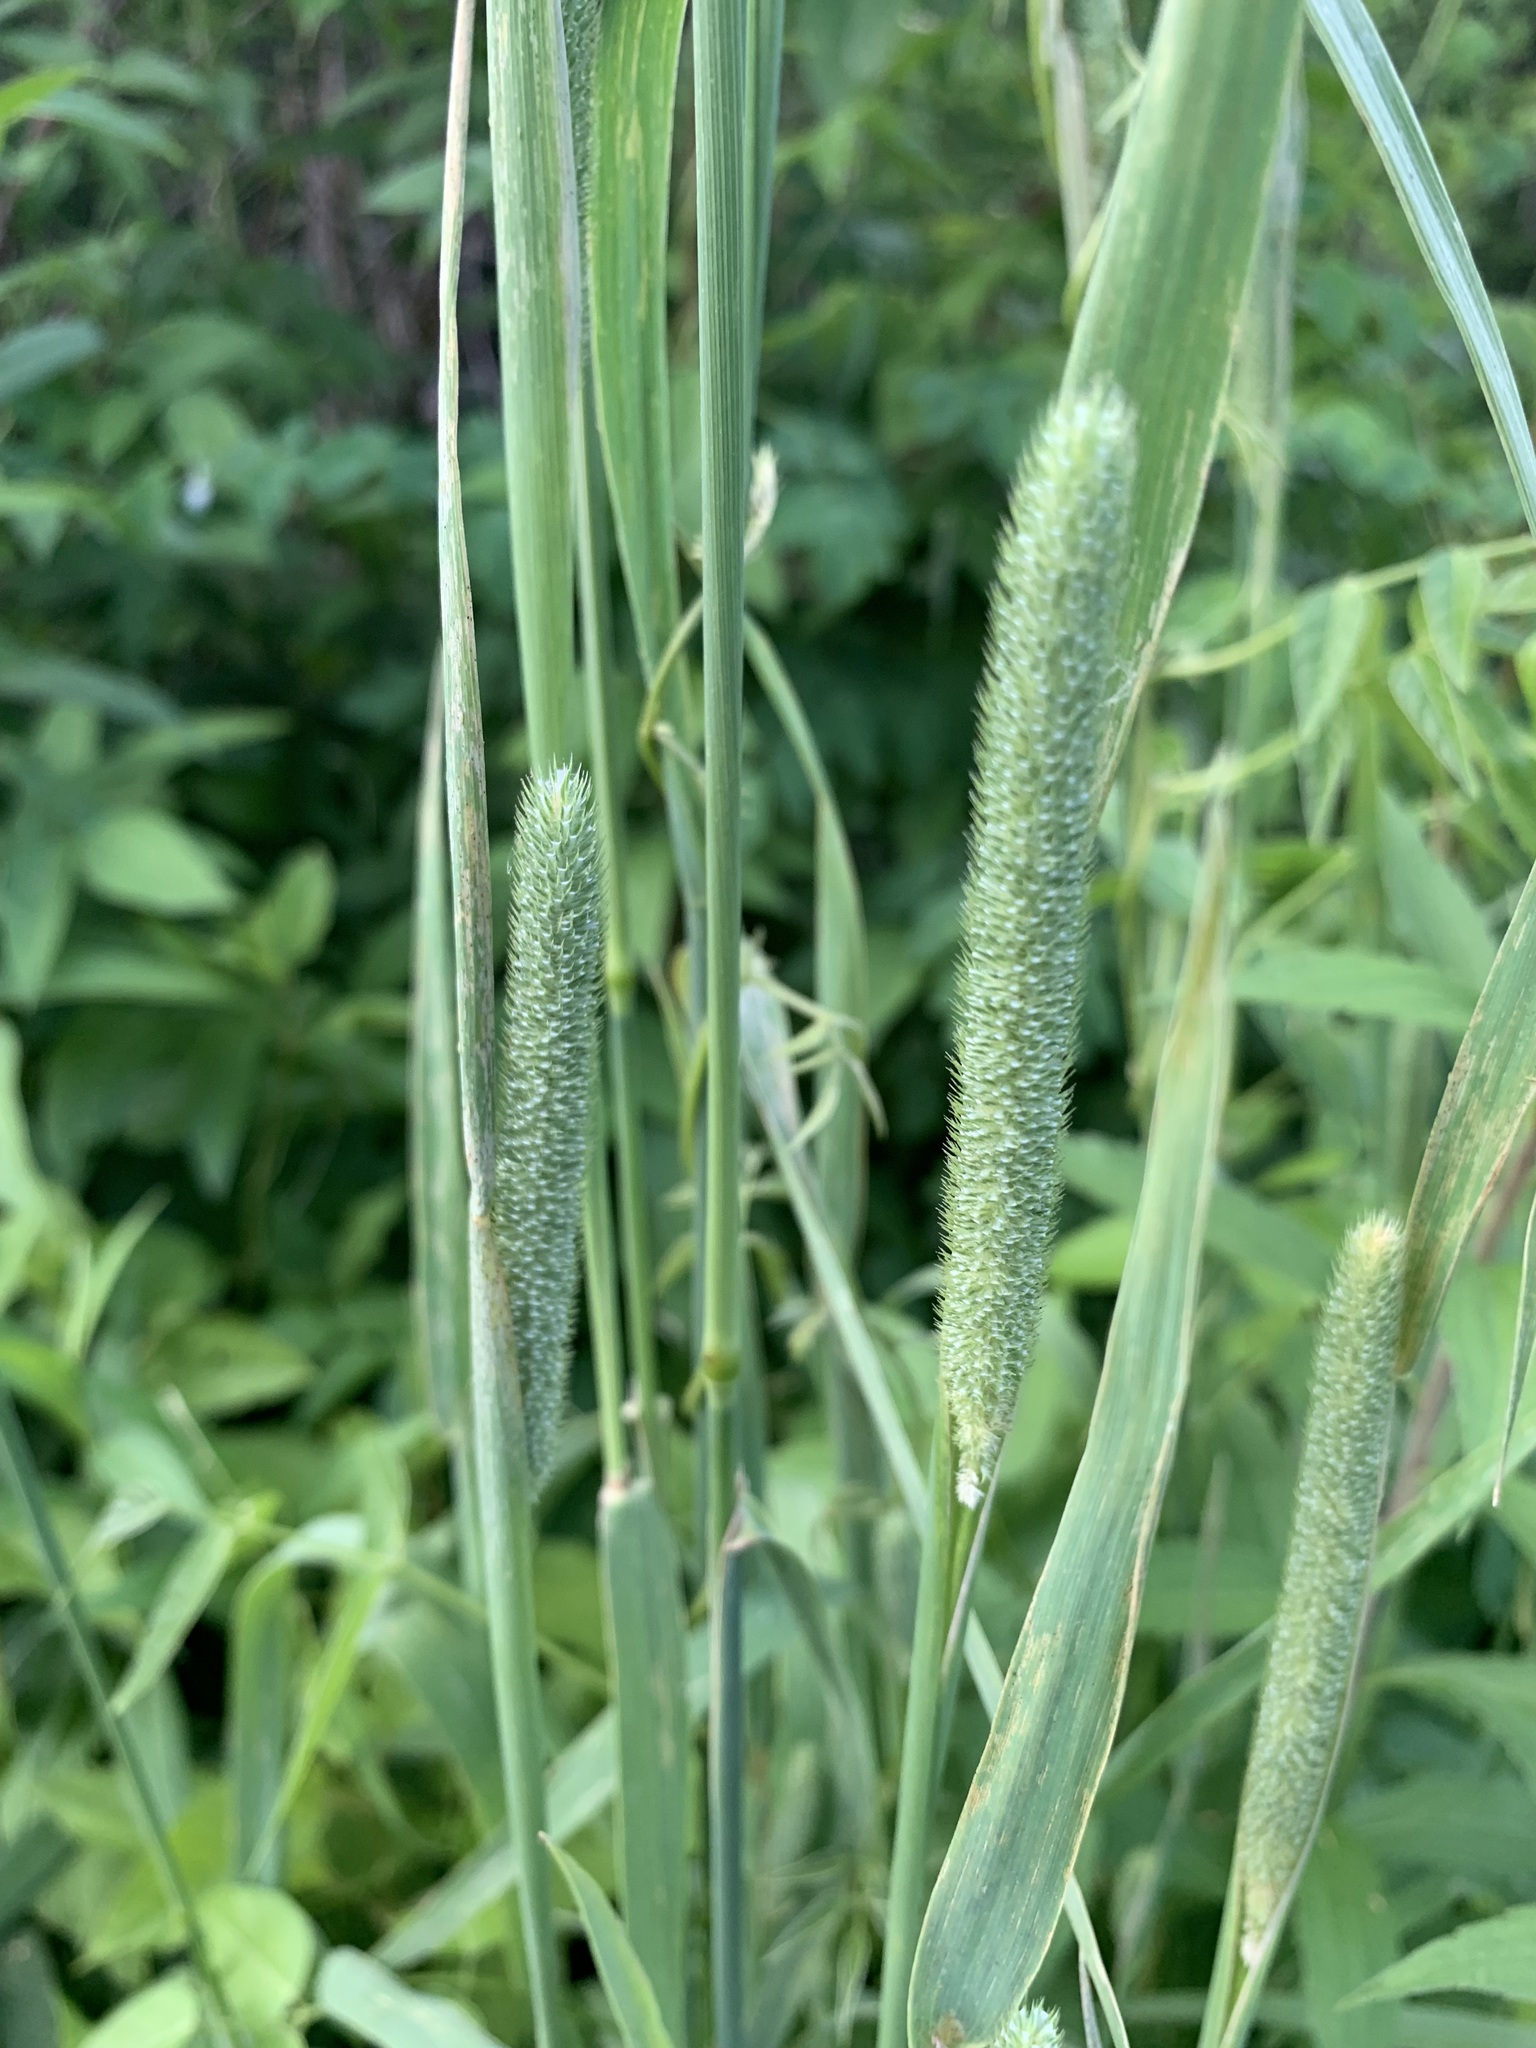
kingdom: Plantae
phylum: Tracheophyta
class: Liliopsida
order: Poales
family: Poaceae
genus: Phleum
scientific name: Phleum pratense
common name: Timothy grass
